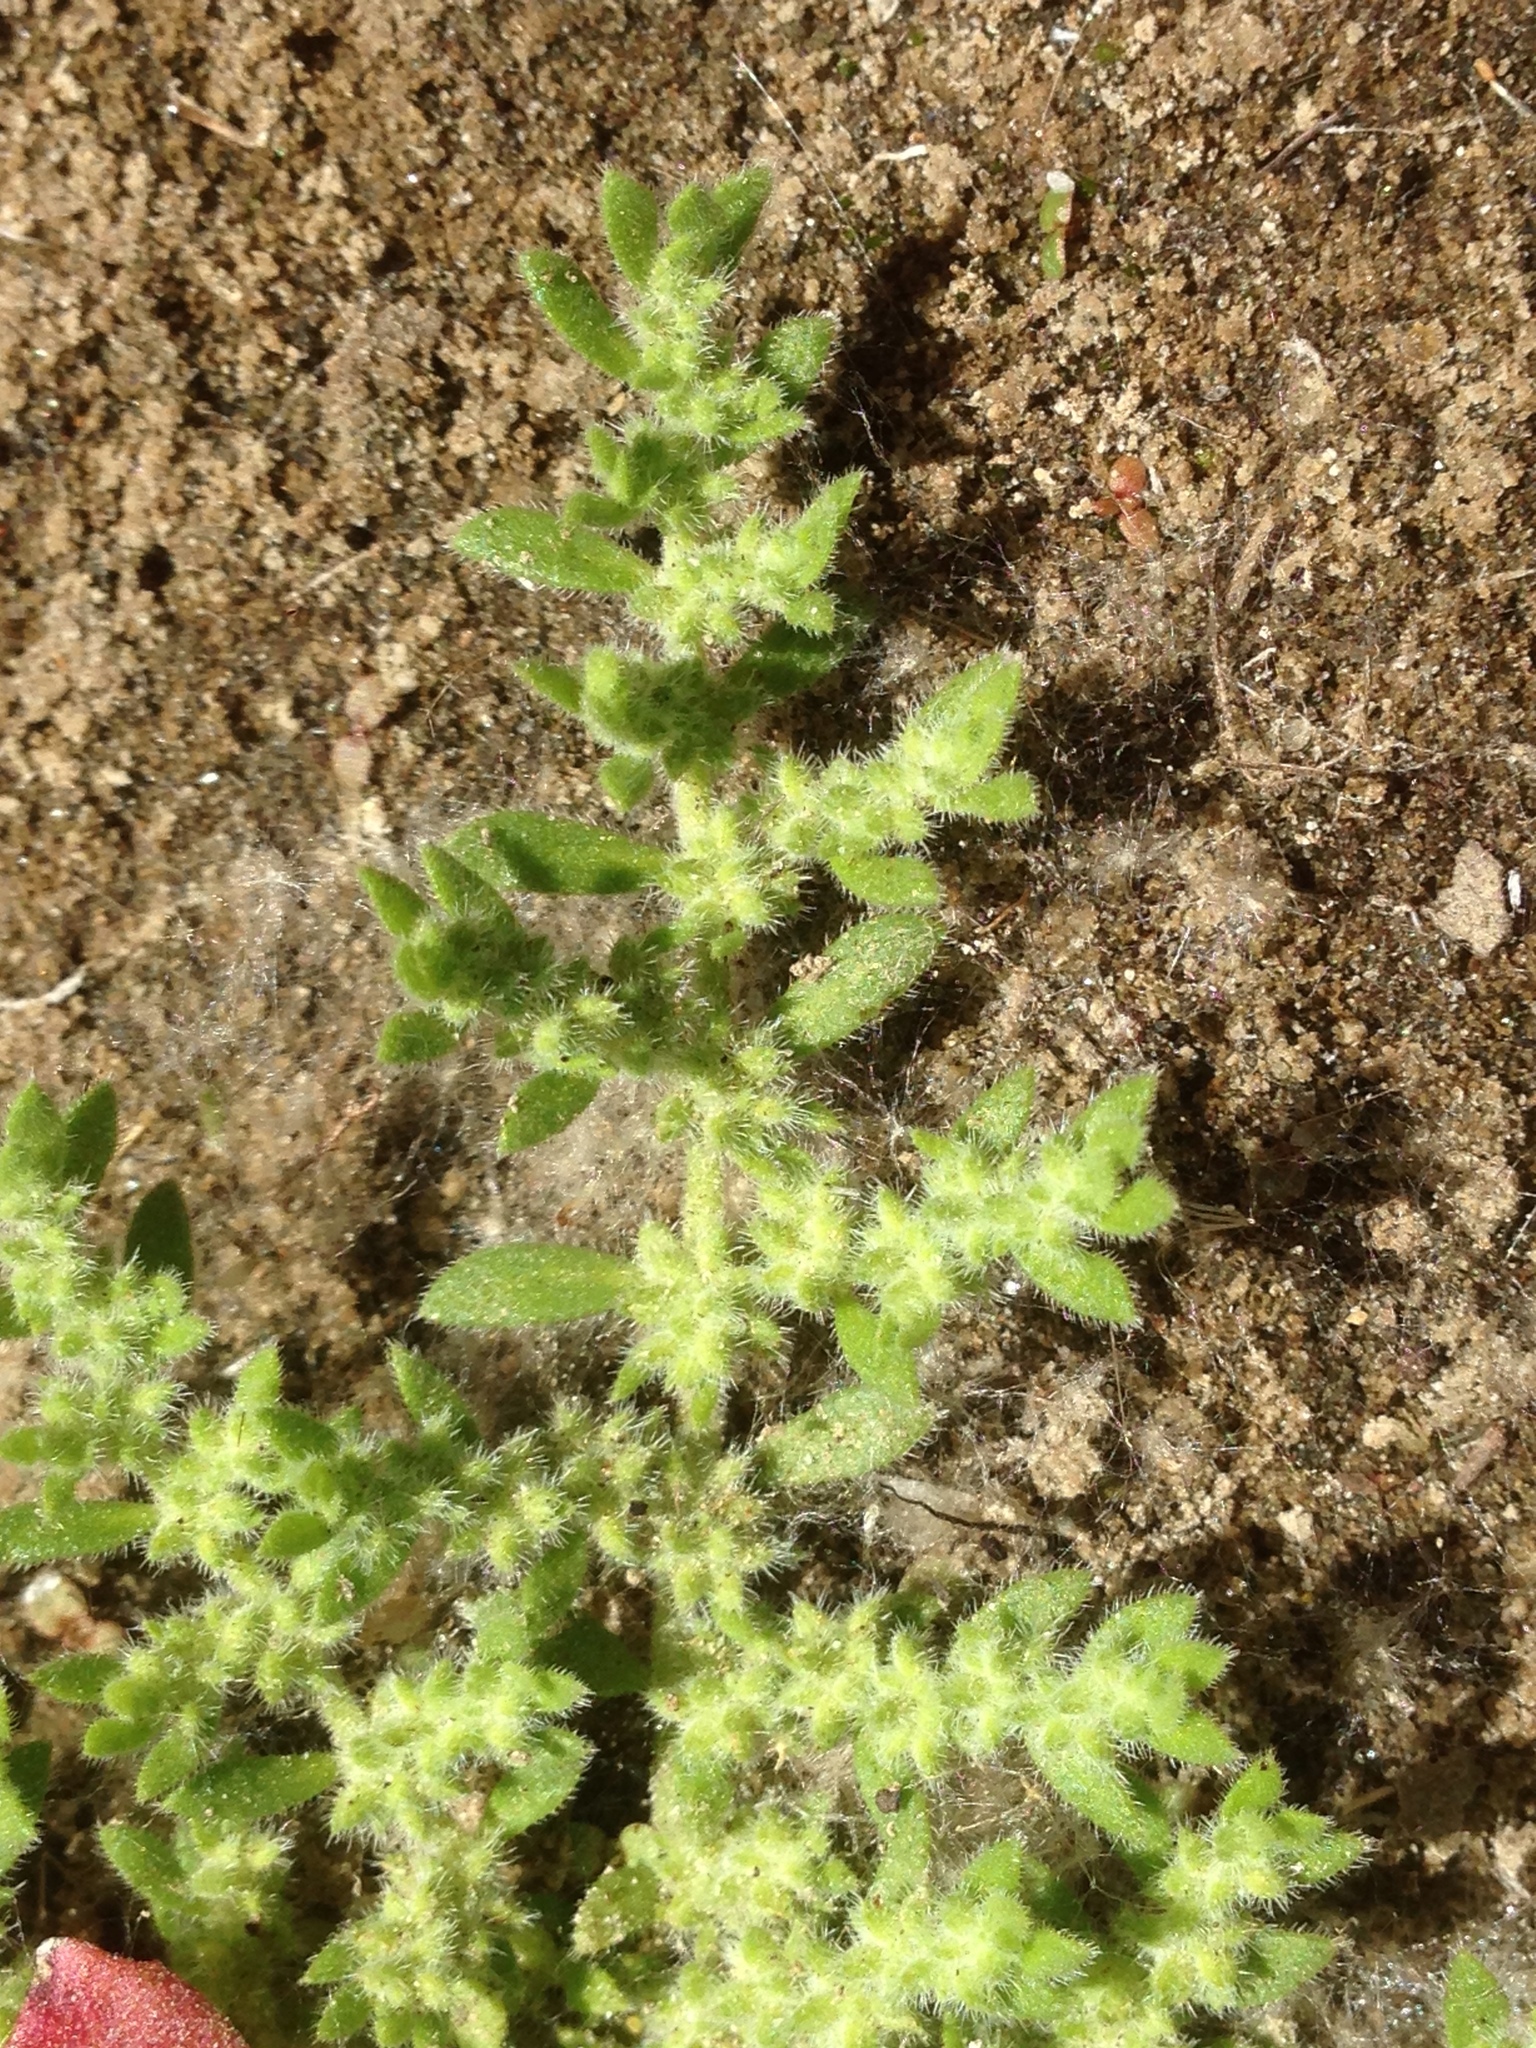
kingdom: Plantae
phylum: Tracheophyta
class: Magnoliopsida
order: Caryophyllales
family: Caryophyllaceae
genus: Herniaria
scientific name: Herniaria cinerea
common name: Hairy rupturewort
